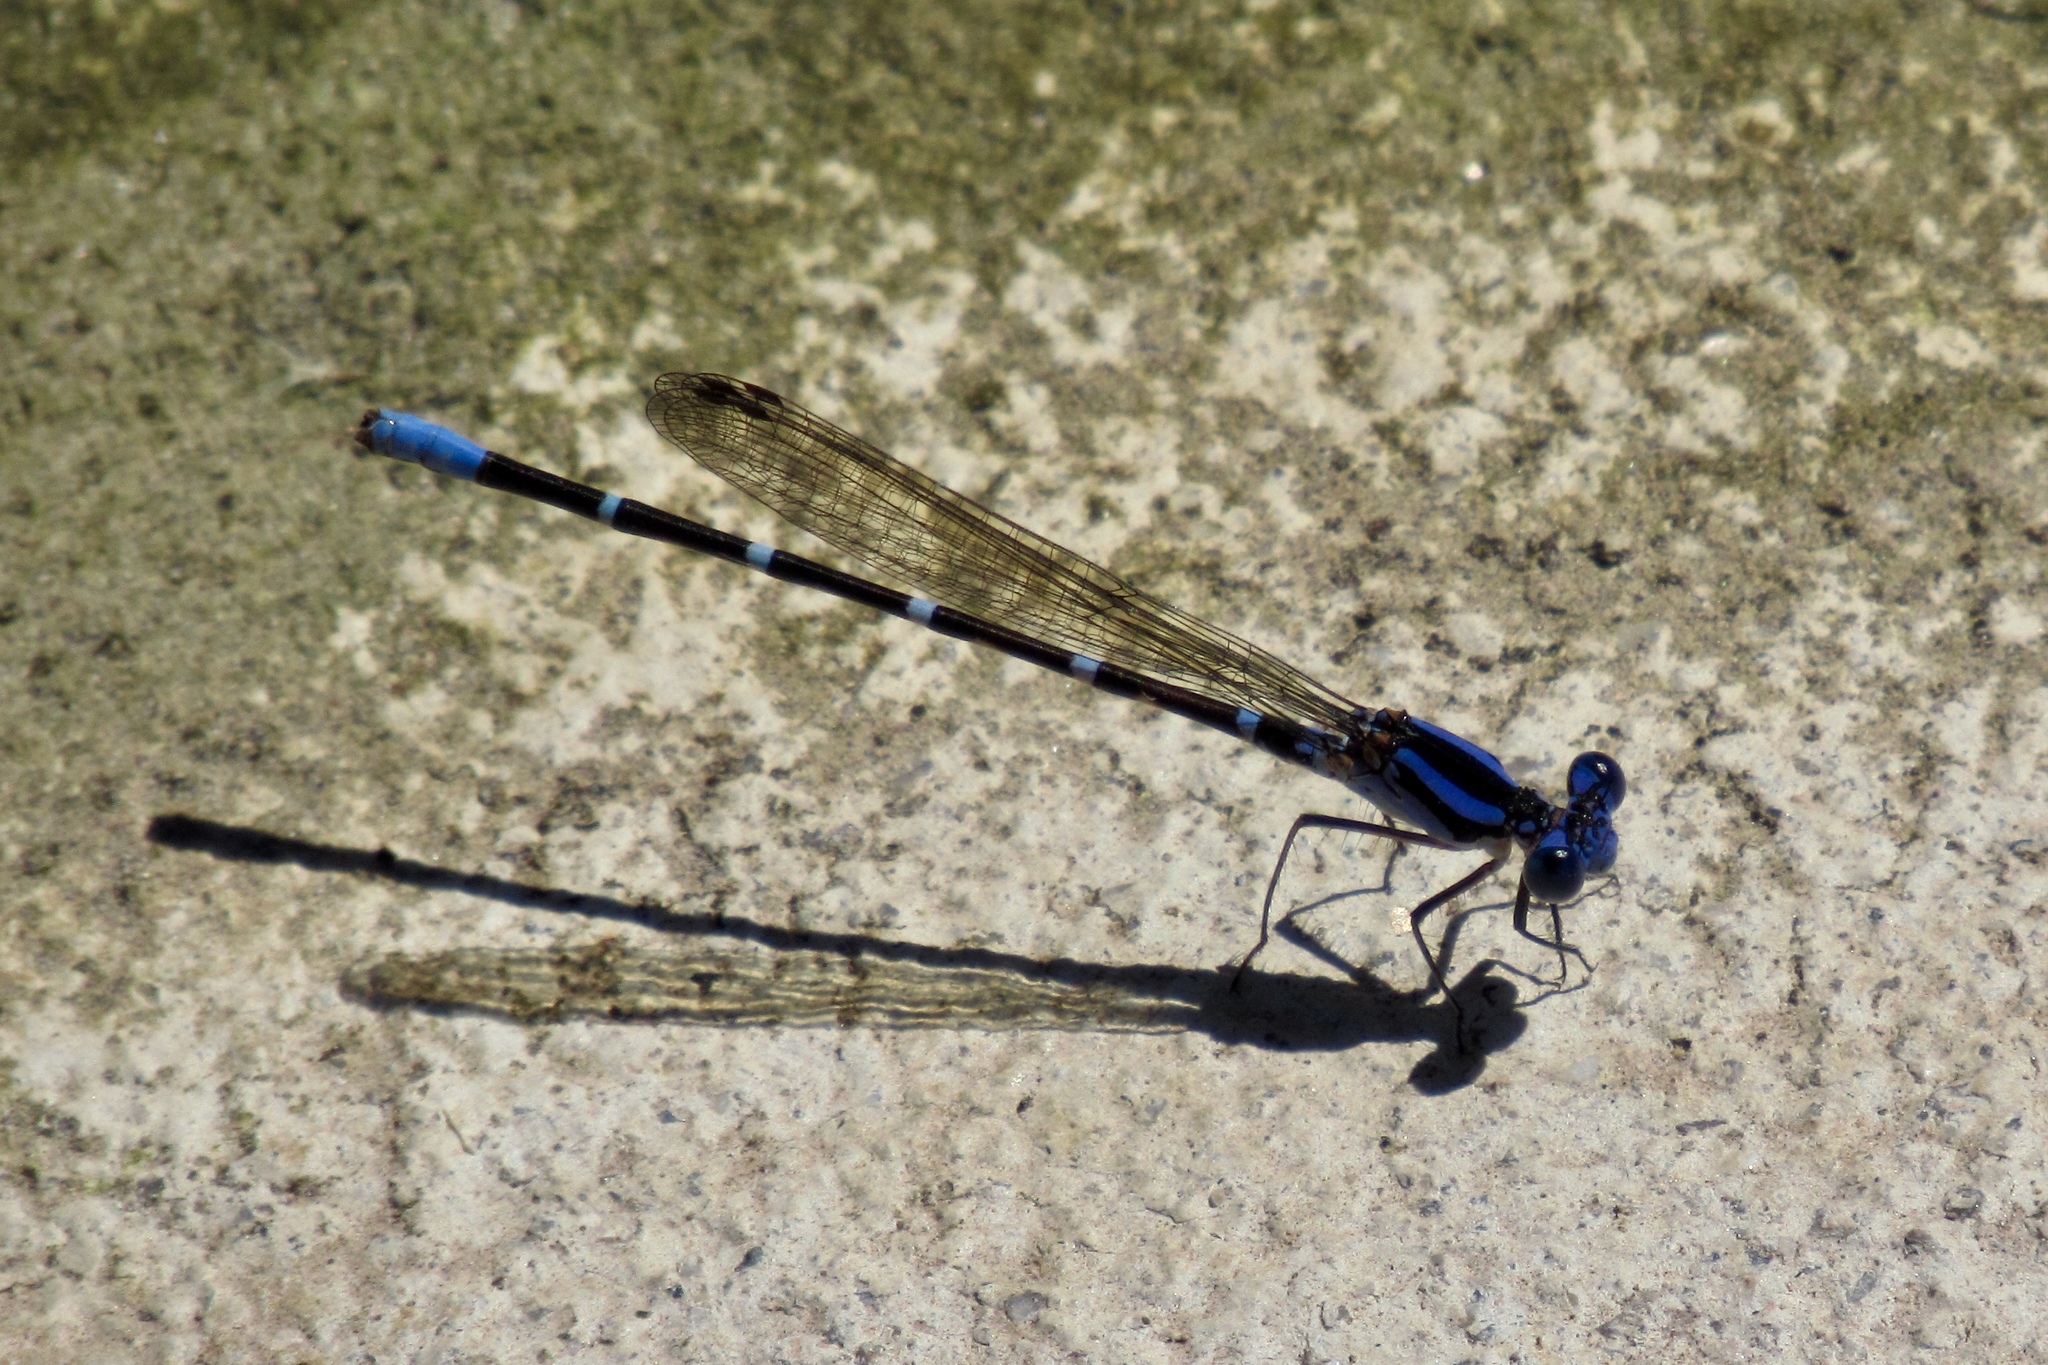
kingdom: Animalia
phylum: Arthropoda
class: Insecta
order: Odonata
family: Coenagrionidae
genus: Argia
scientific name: Argia sedula
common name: Blue-ringed dancer
